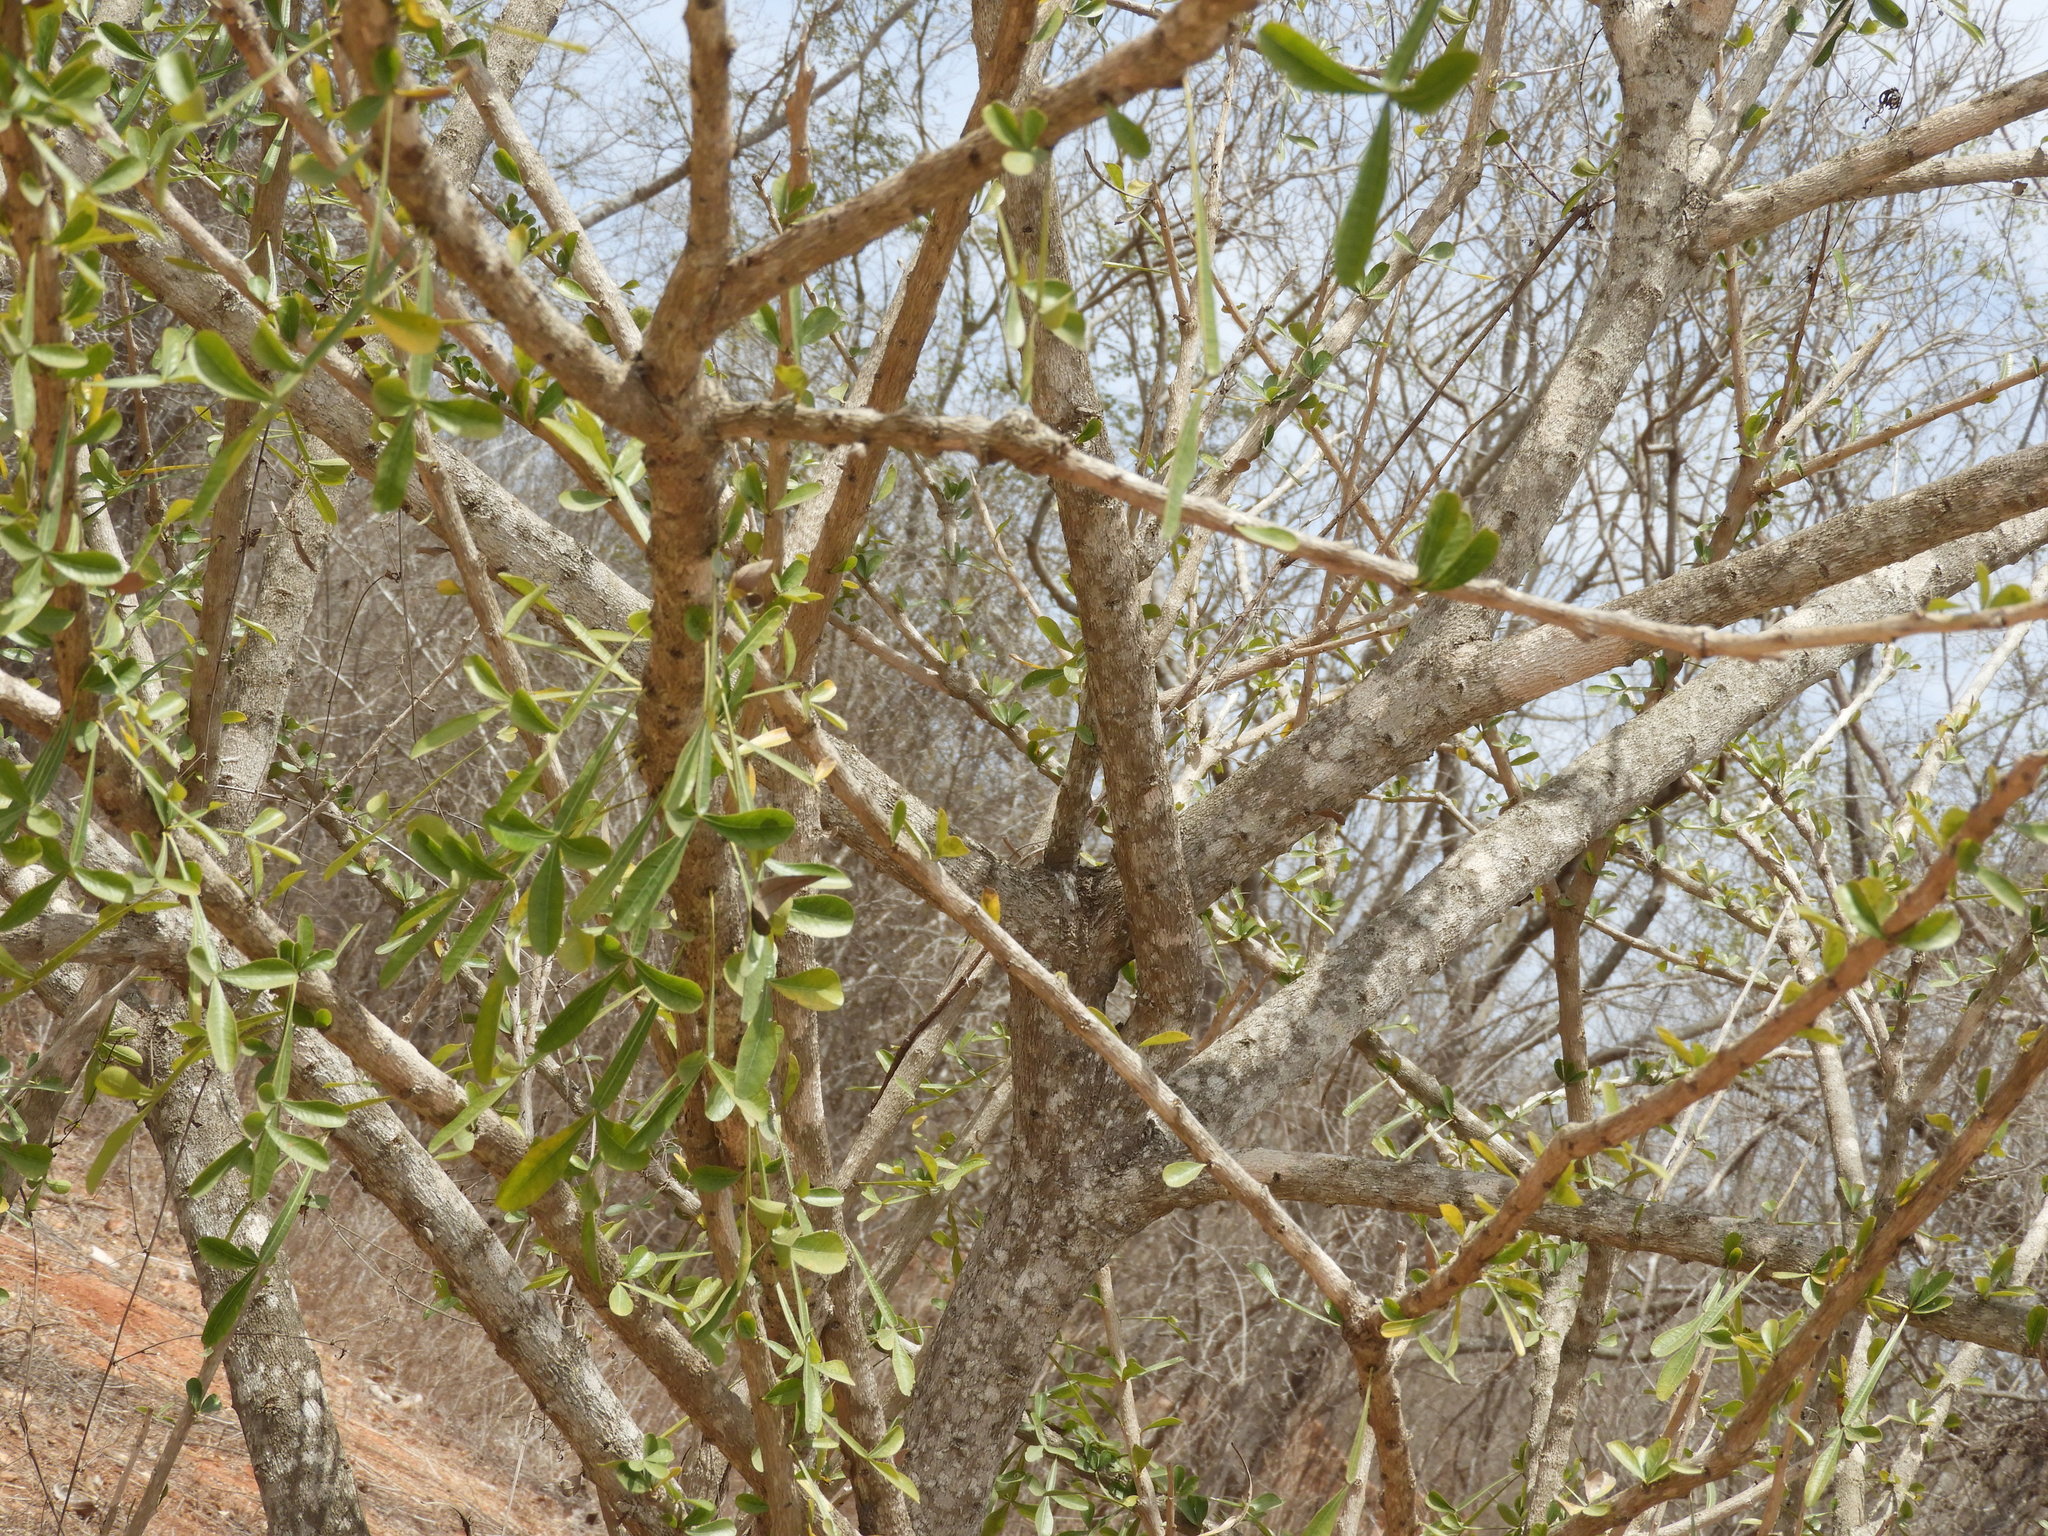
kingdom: Plantae
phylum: Tracheophyta
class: Magnoliopsida
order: Lamiales
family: Bignoniaceae
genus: Crescentia
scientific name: Crescentia alata
